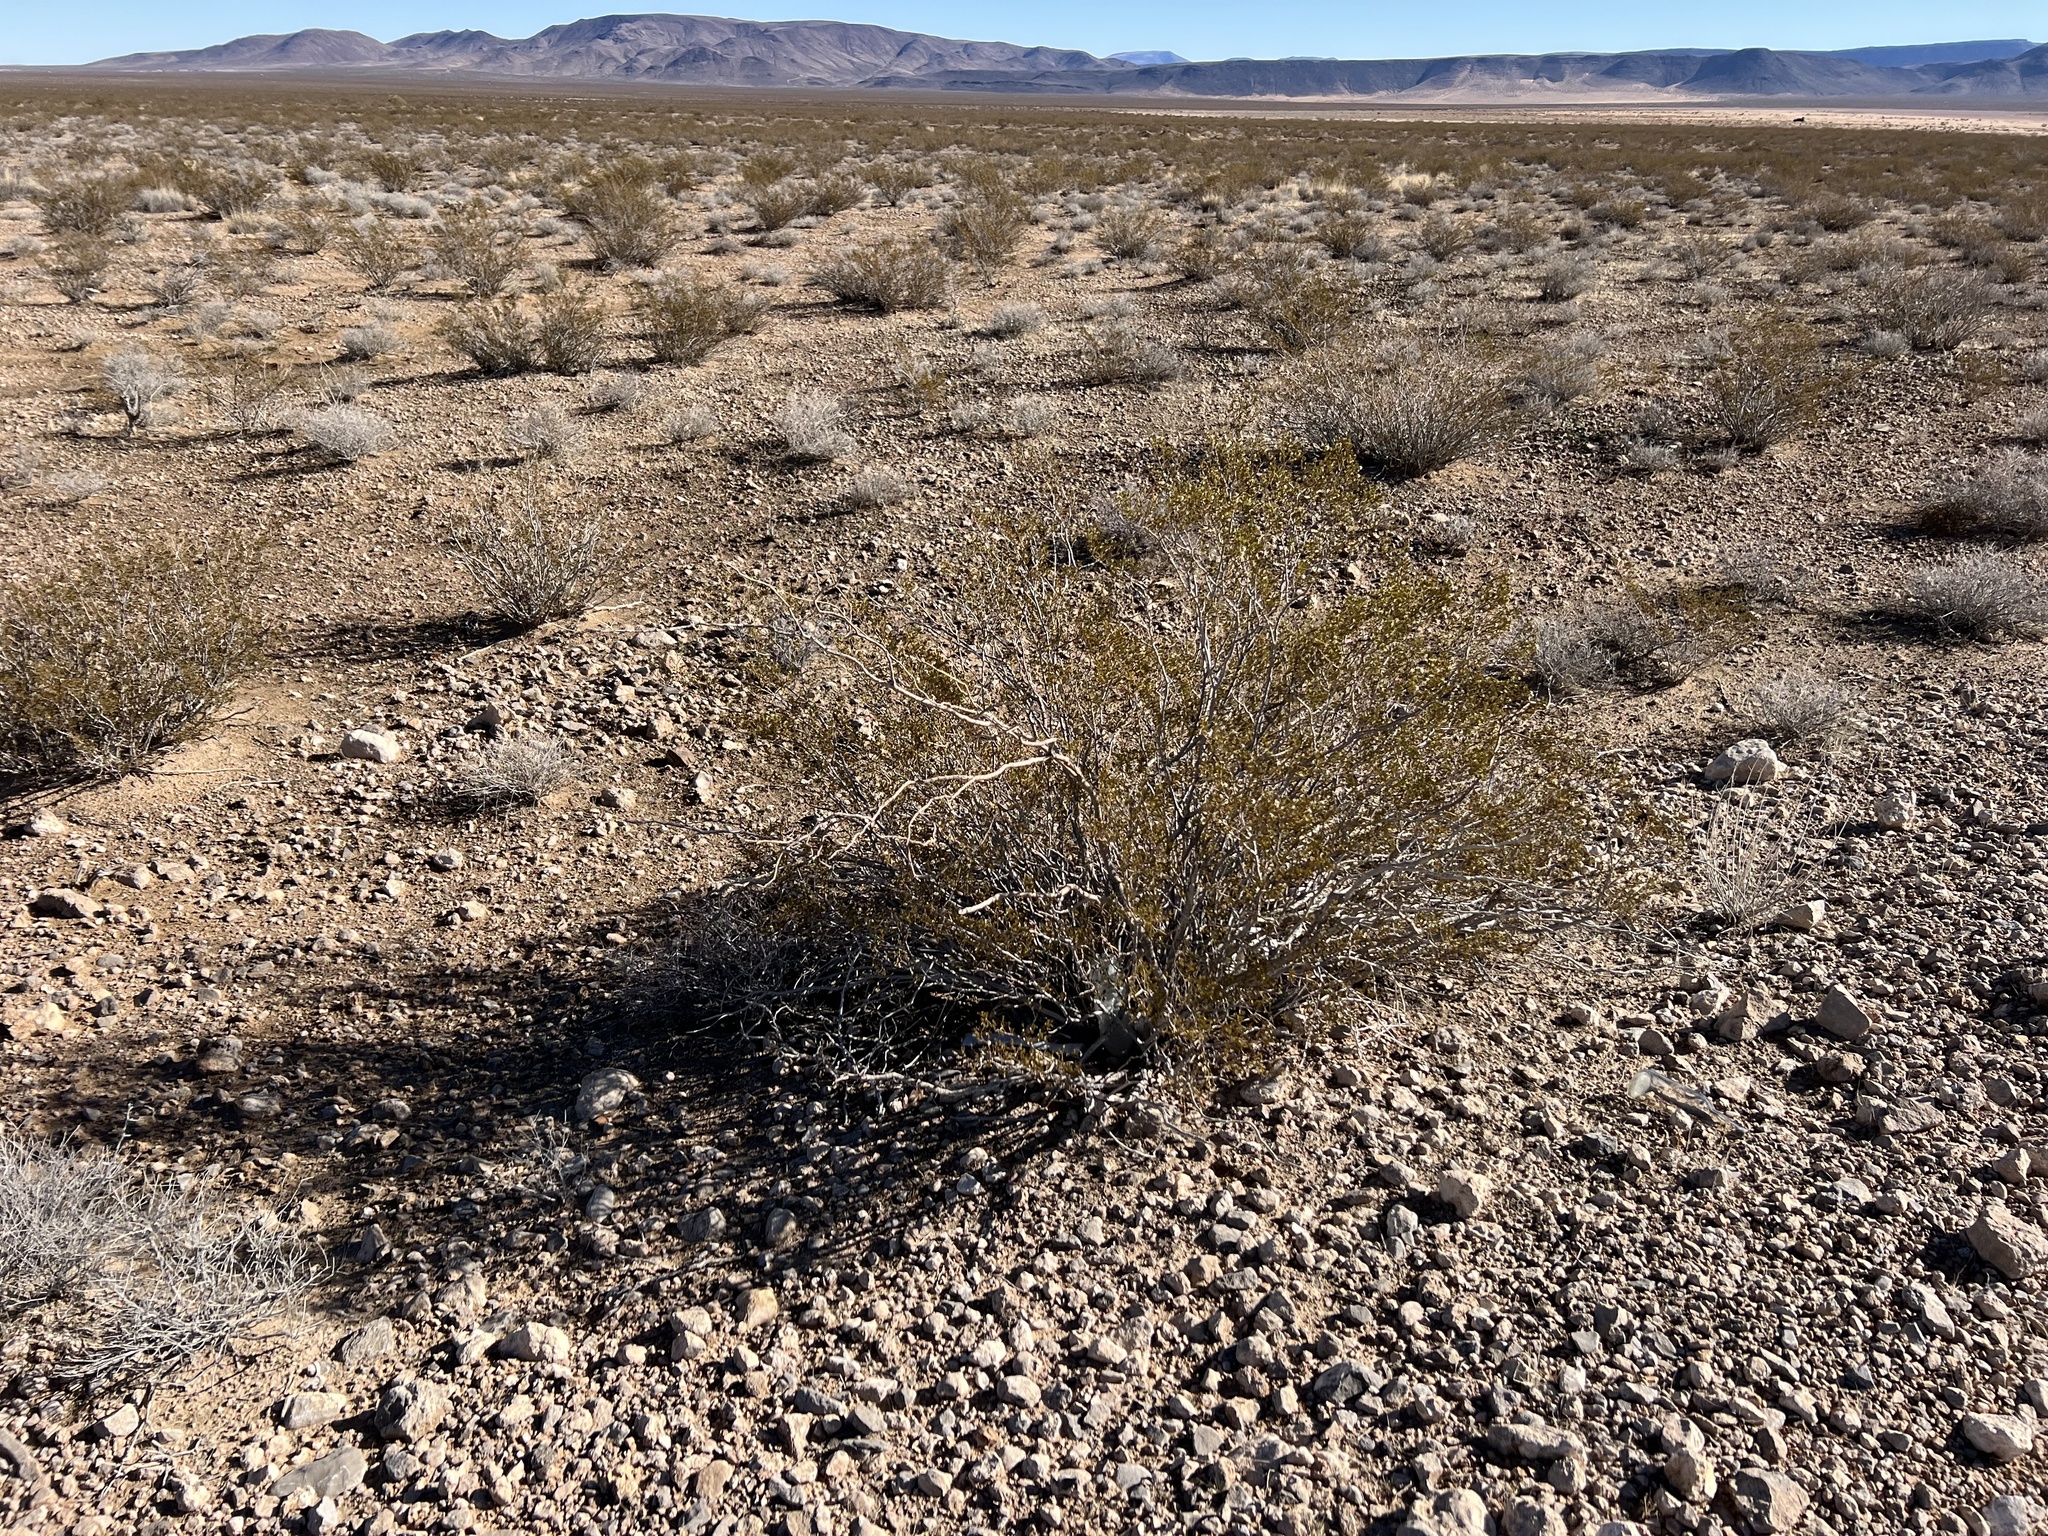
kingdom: Plantae
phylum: Tracheophyta
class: Magnoliopsida
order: Zygophyllales
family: Zygophyllaceae
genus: Larrea
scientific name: Larrea tridentata
